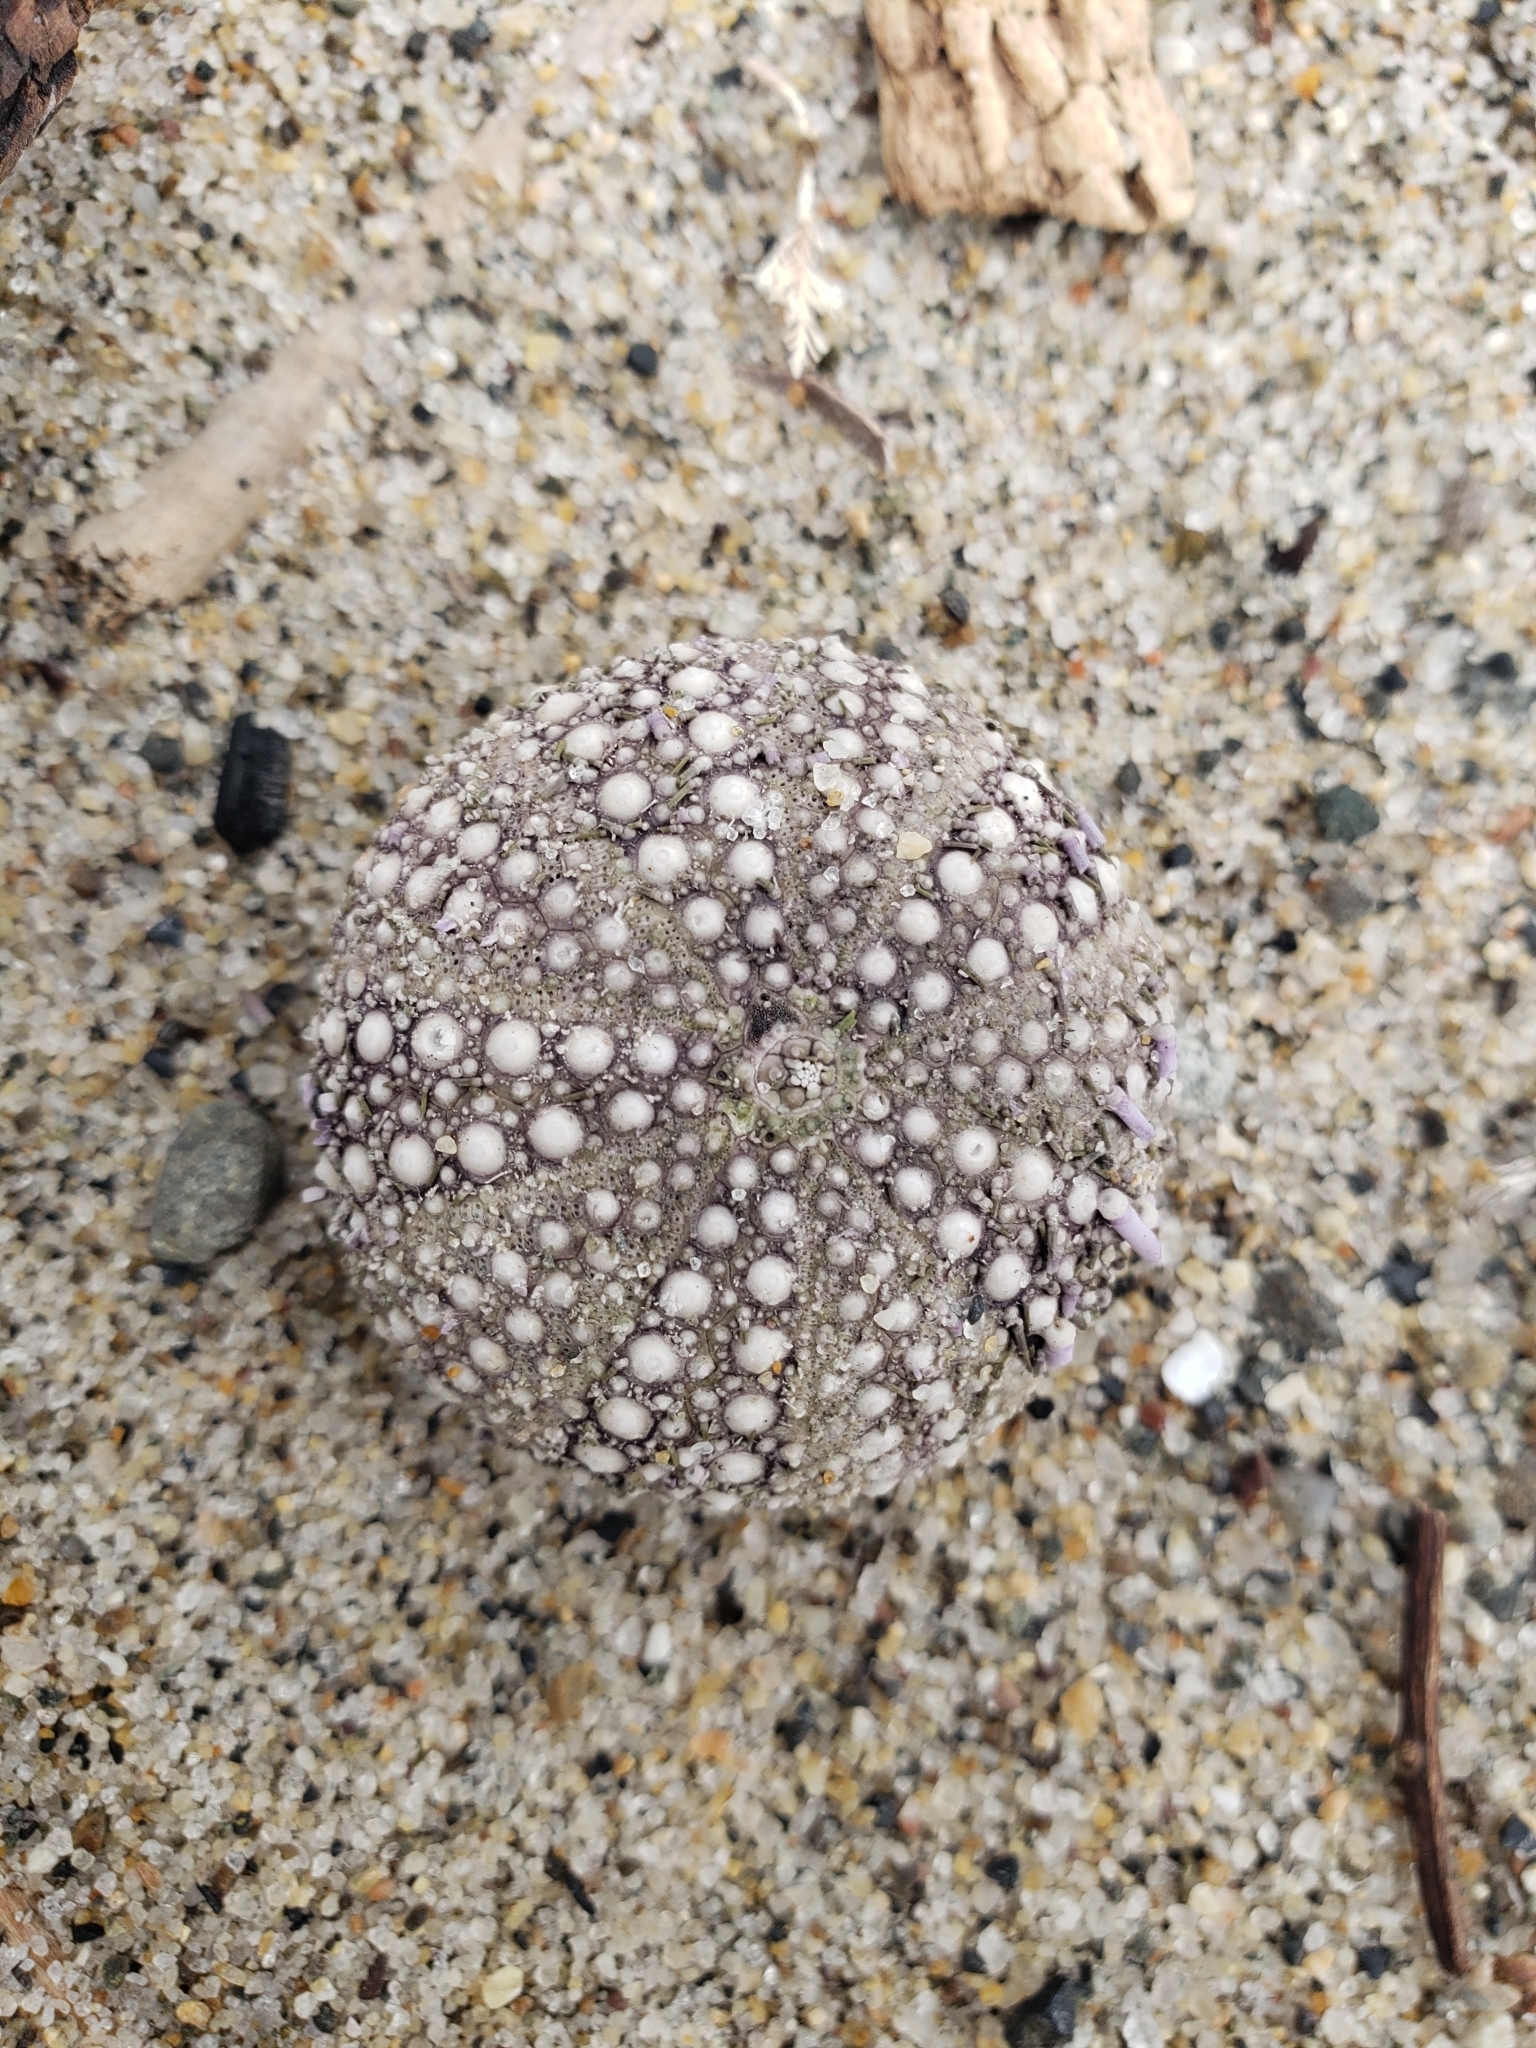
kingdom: Animalia
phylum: Echinodermata
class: Echinoidea
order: Camarodonta
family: Strongylocentrotidae
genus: Strongylocentrotus
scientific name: Strongylocentrotus purpuratus
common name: Purple sea urchin
